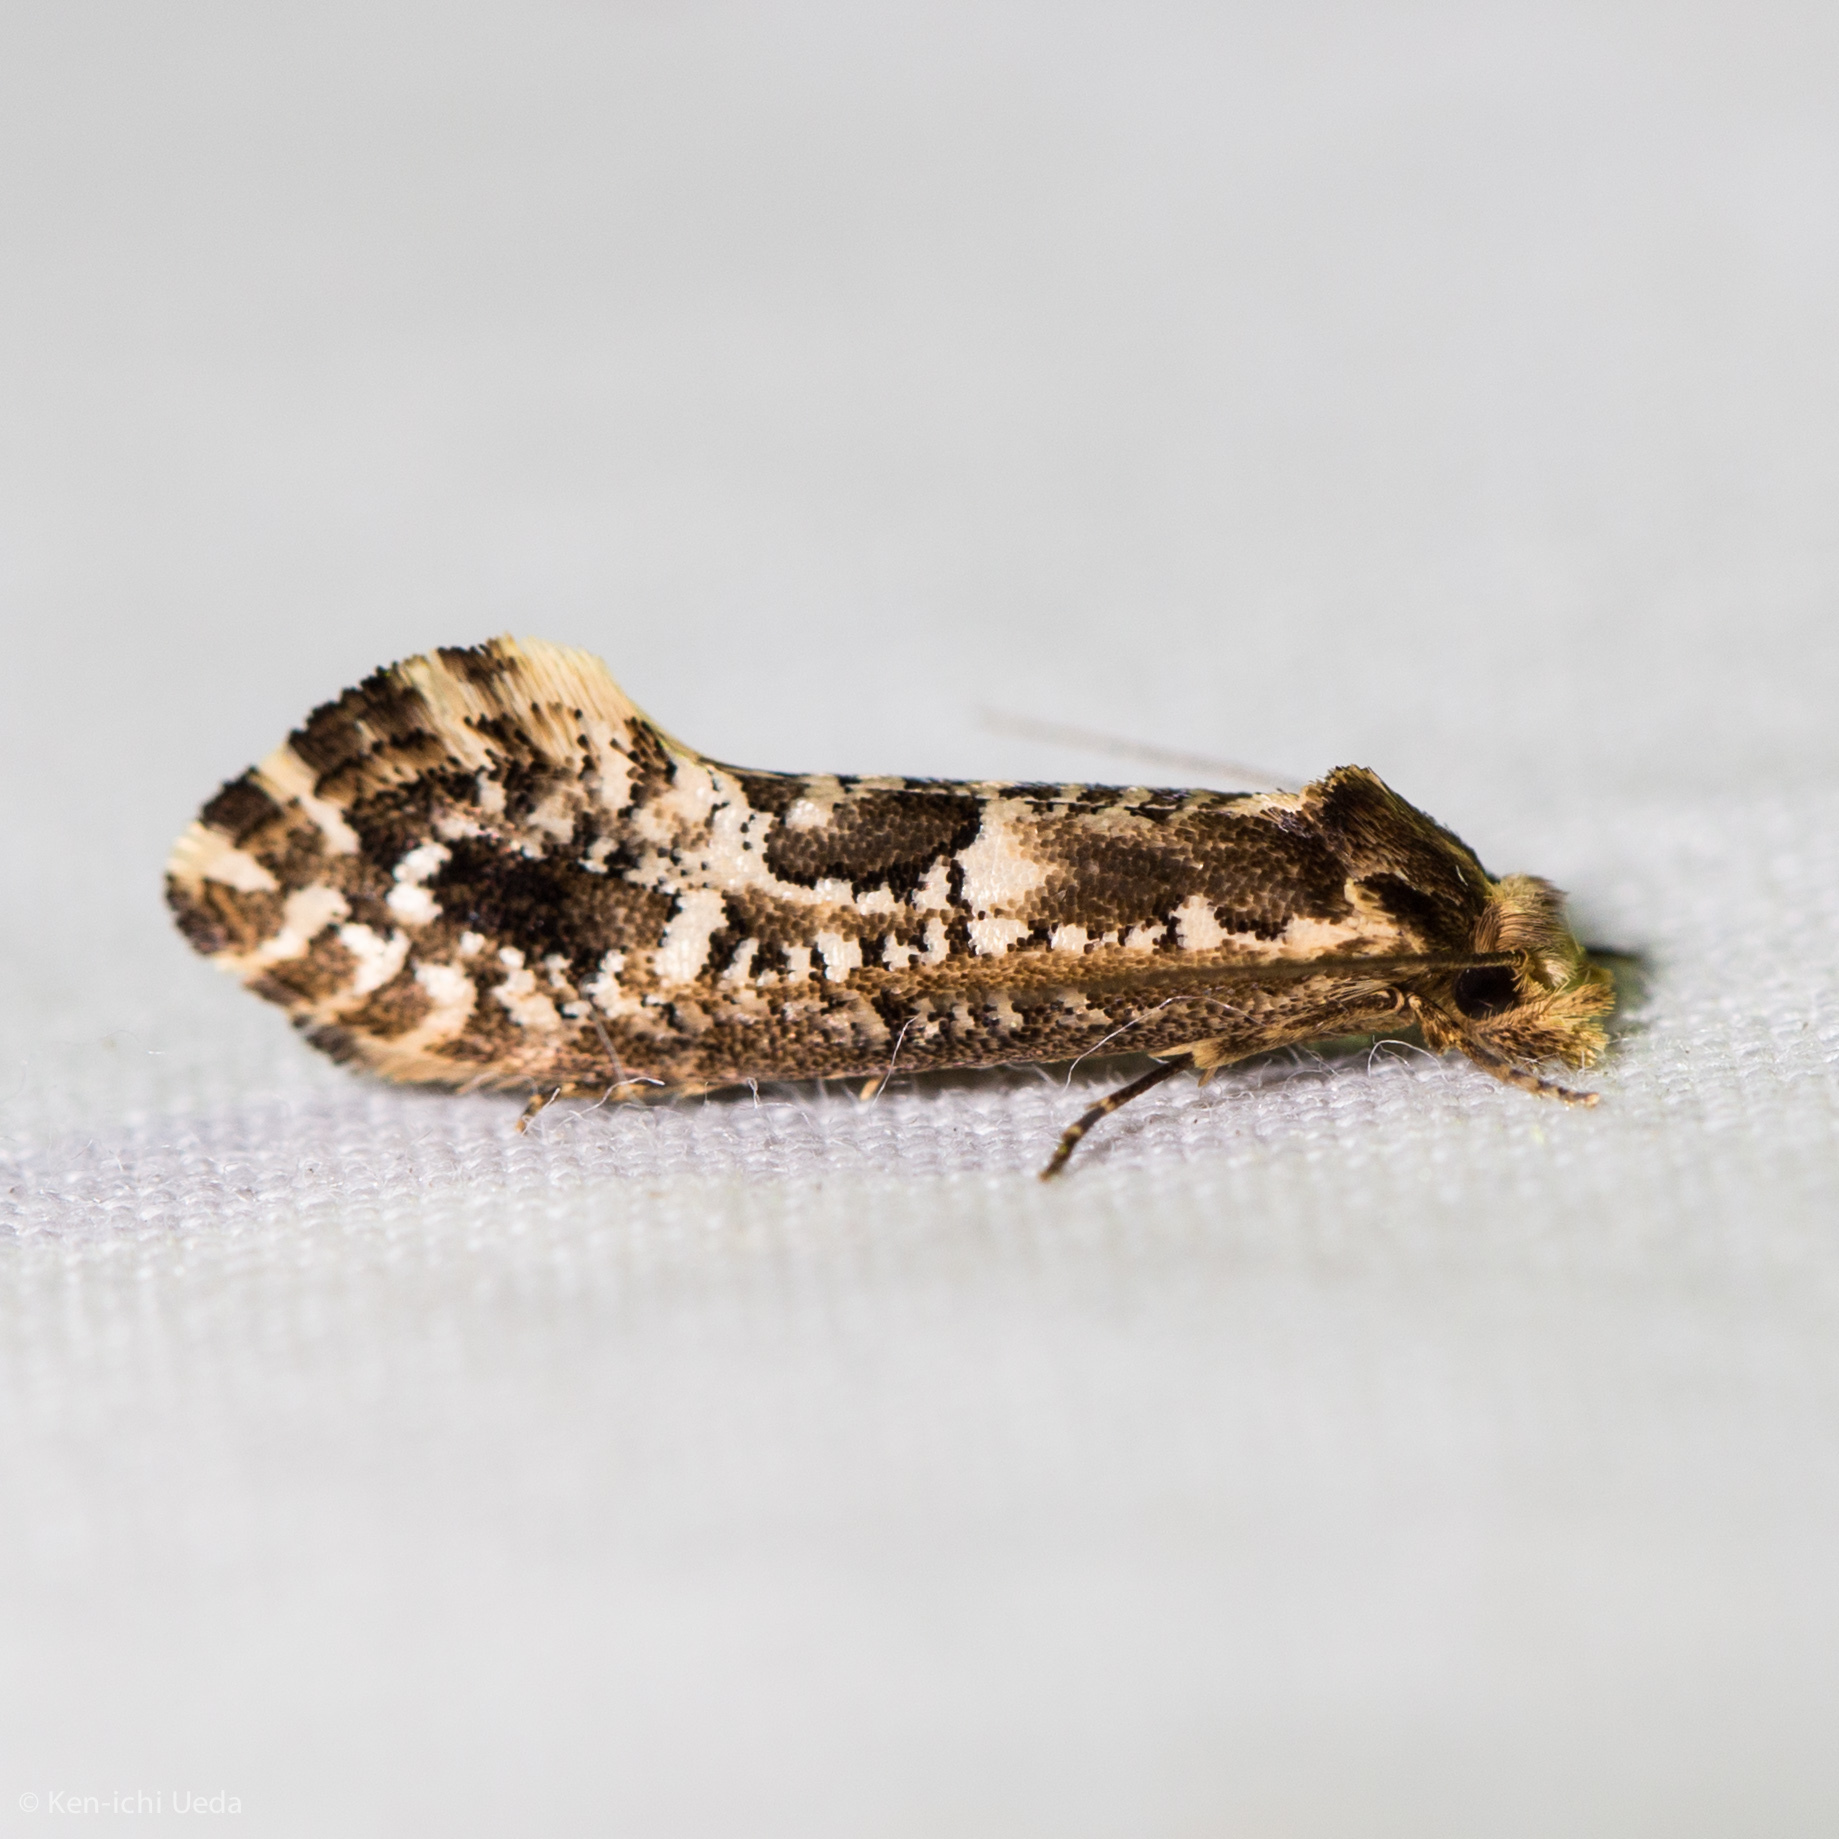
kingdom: Animalia
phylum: Arthropoda
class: Insecta
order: Lepidoptera
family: Tineidae
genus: Moerarchis
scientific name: Moerarchis inconcisella
